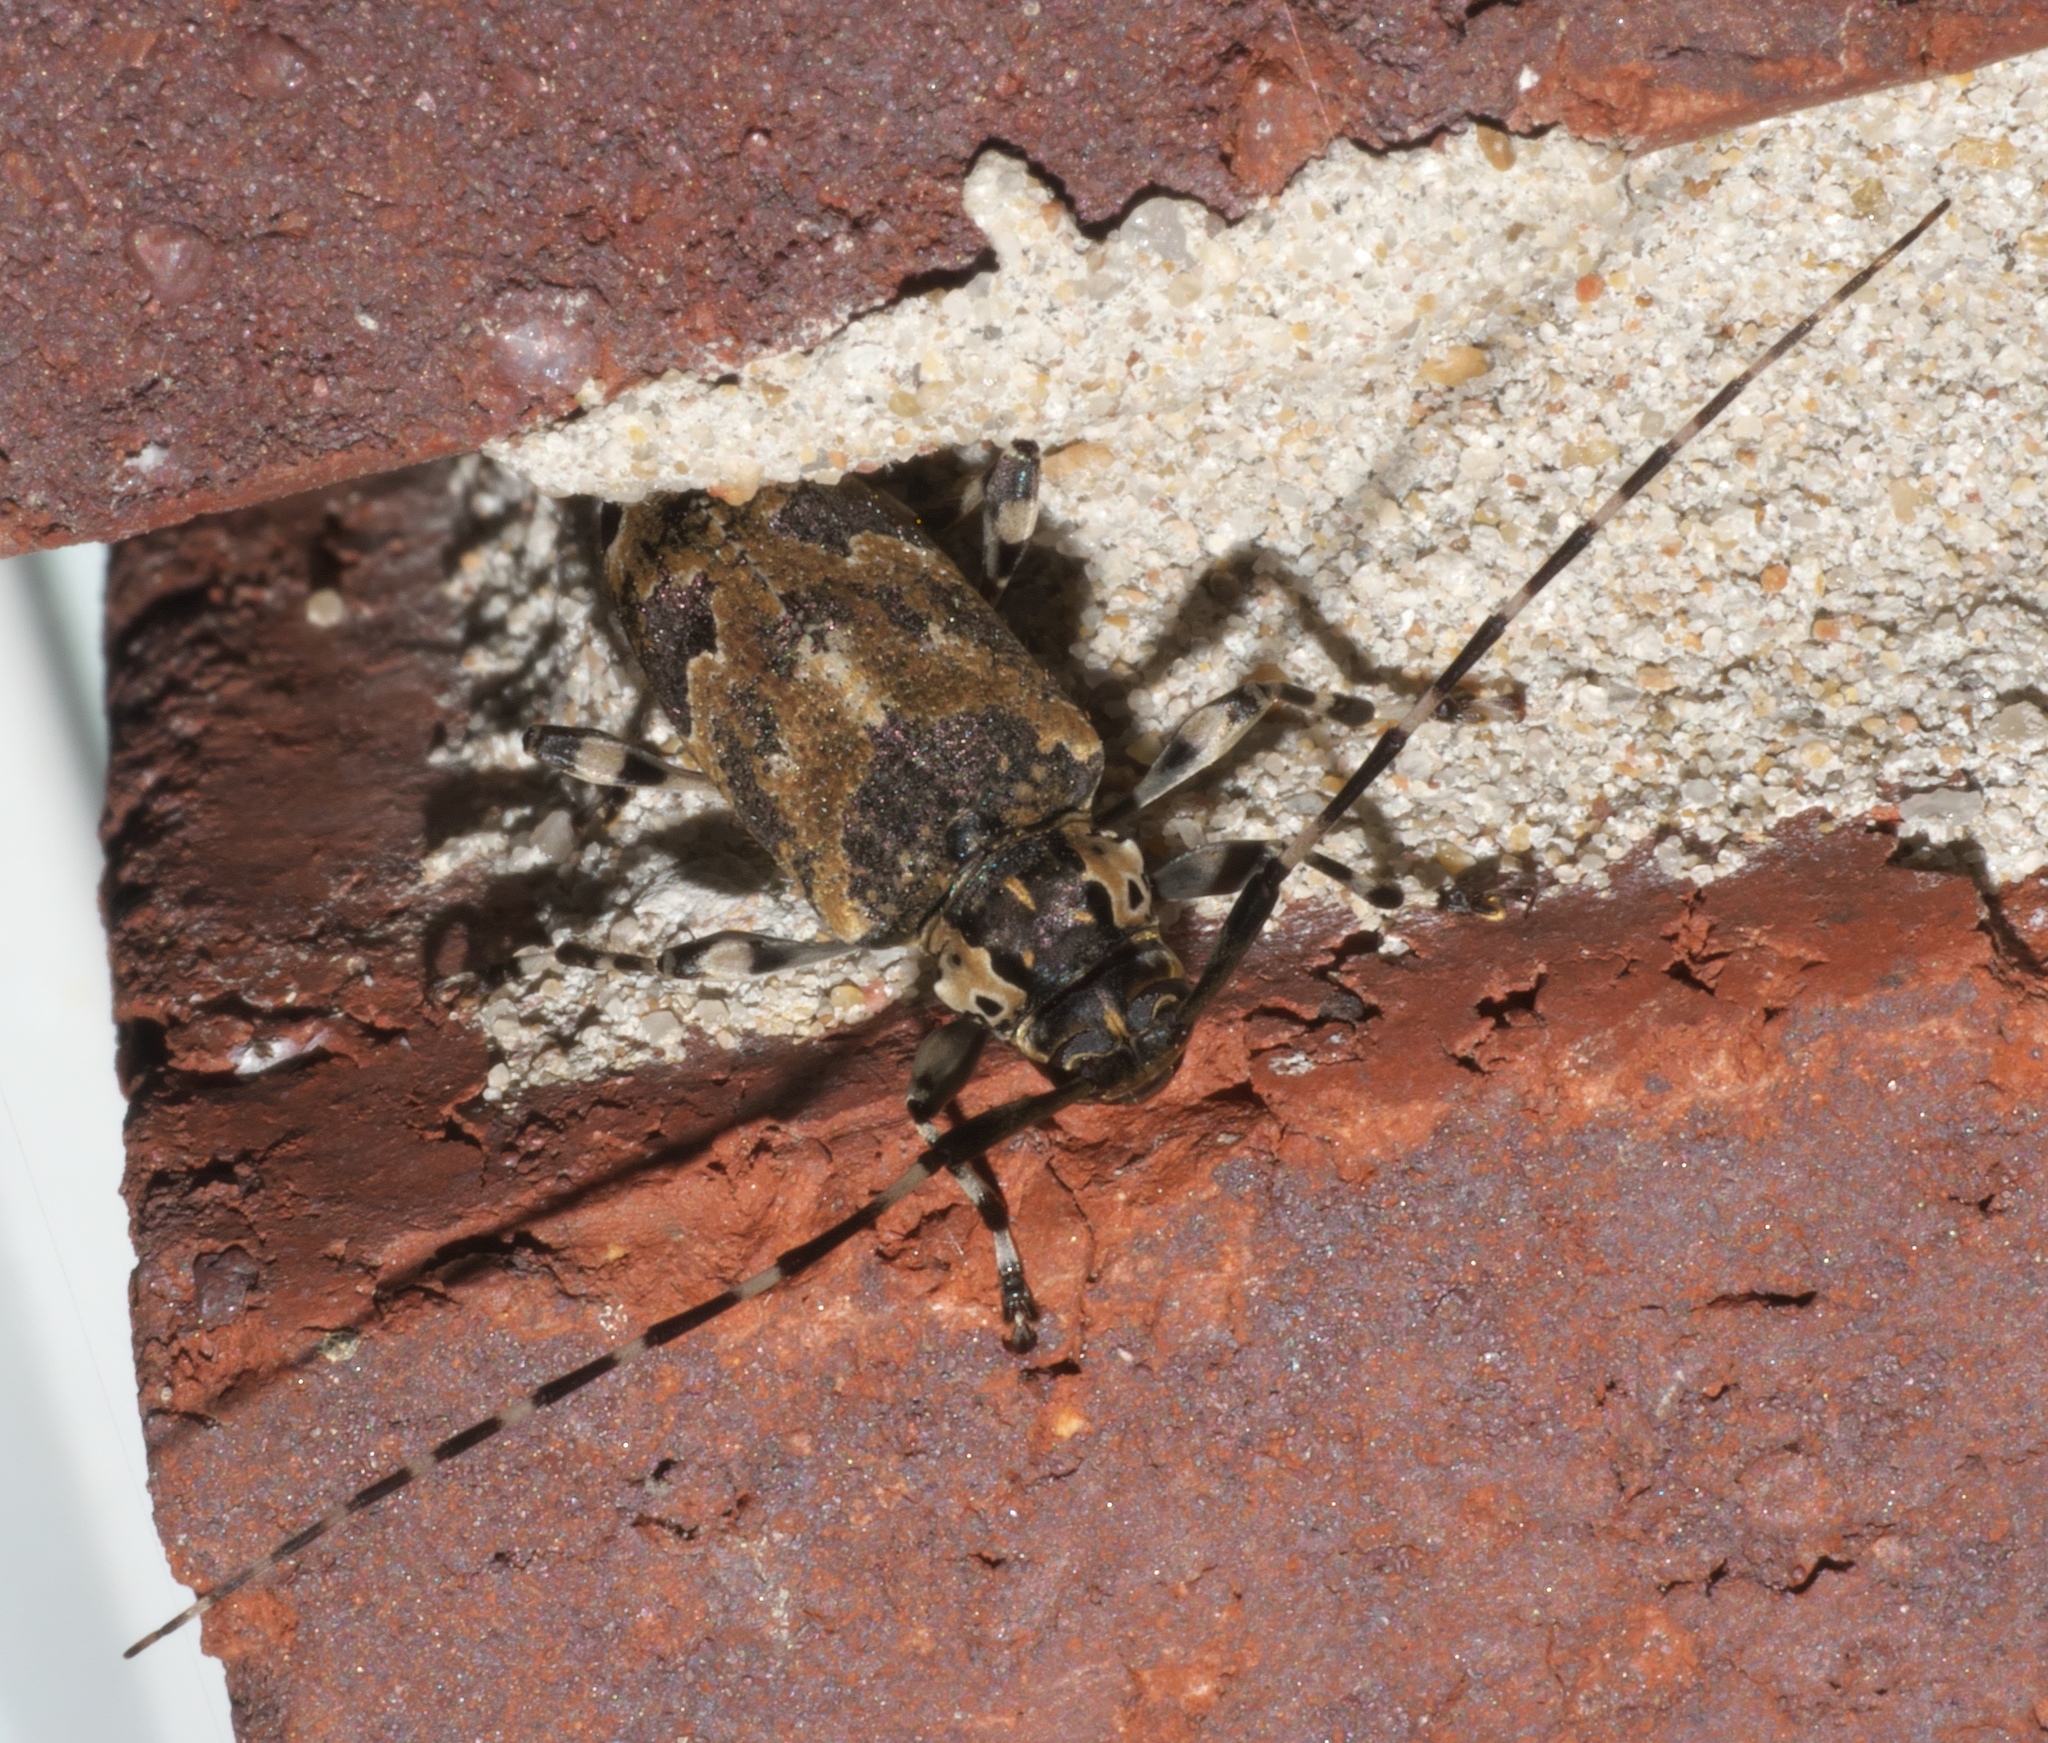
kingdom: Animalia
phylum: Arthropoda
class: Insecta
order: Coleoptera
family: Cerambycidae
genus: Graphisurus
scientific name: Graphisurus triangulifer
